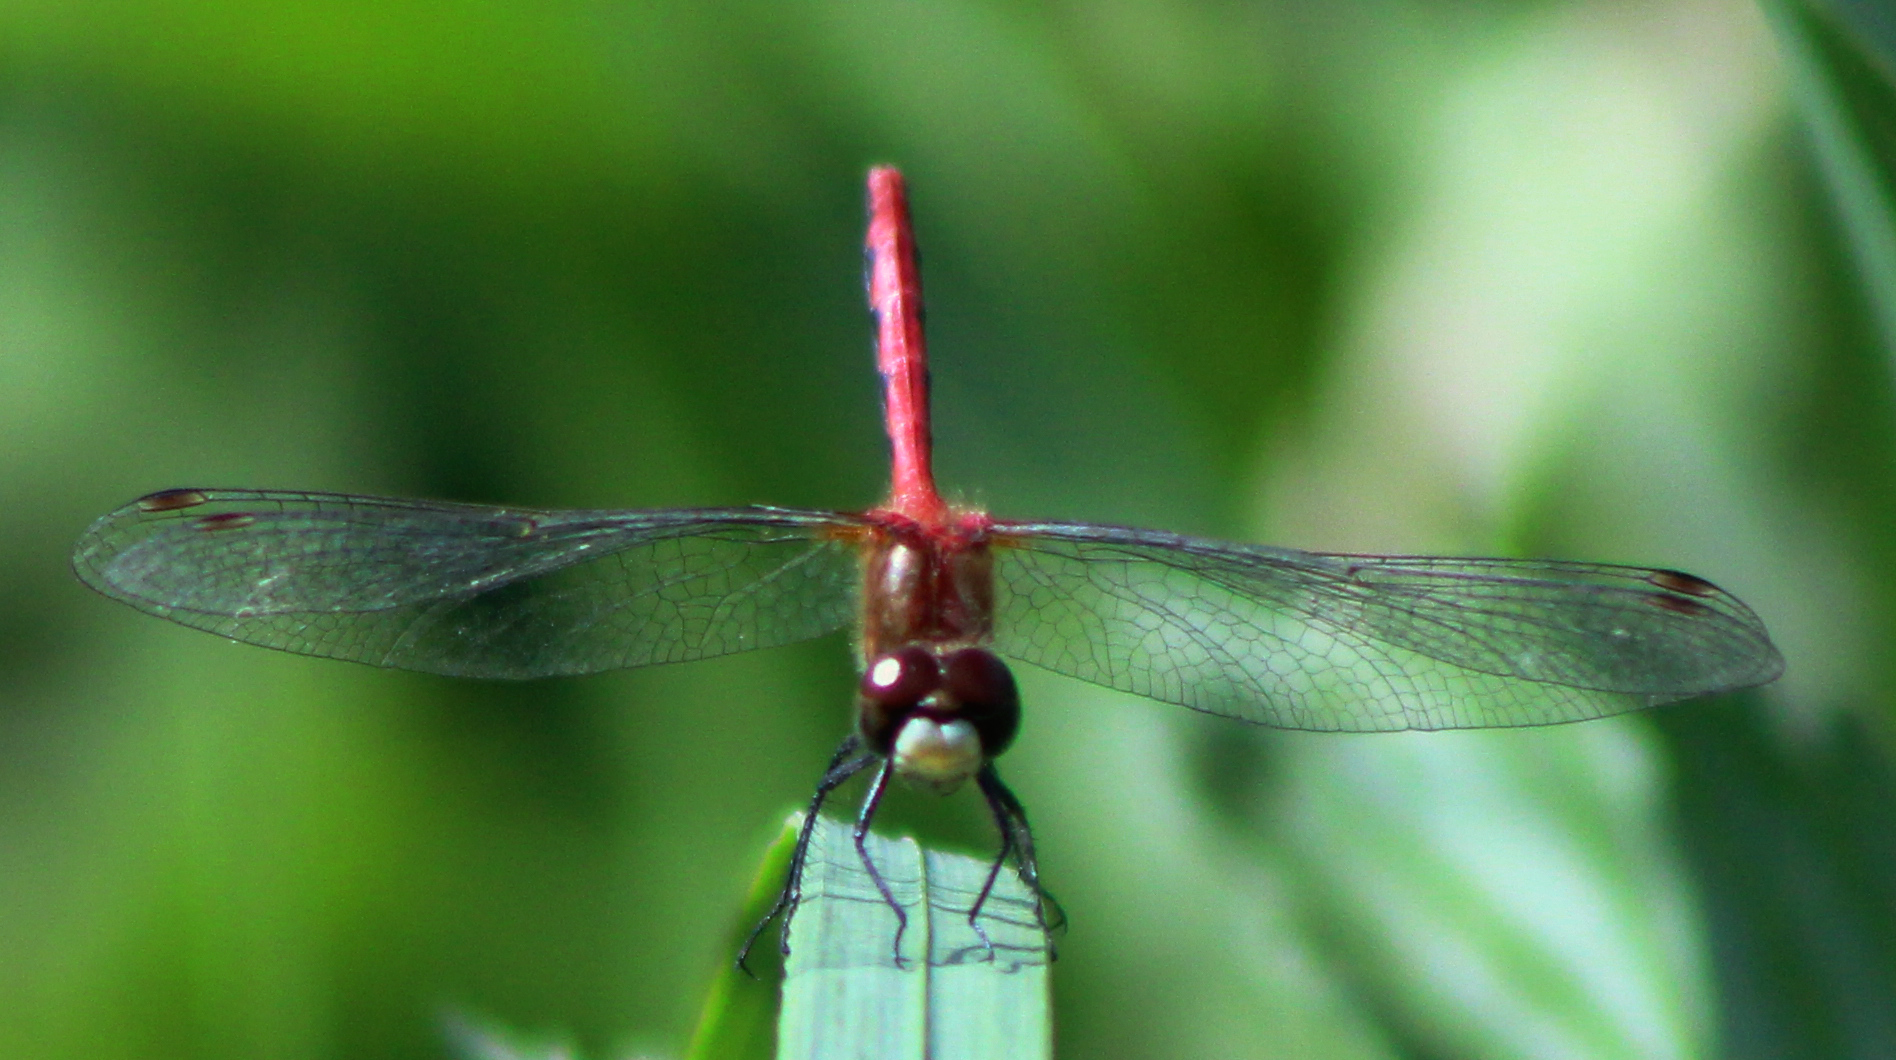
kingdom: Animalia
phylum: Arthropoda
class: Insecta
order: Odonata
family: Libellulidae
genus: Sympetrum
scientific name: Sympetrum obtrusum
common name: White-faced meadowhawk
